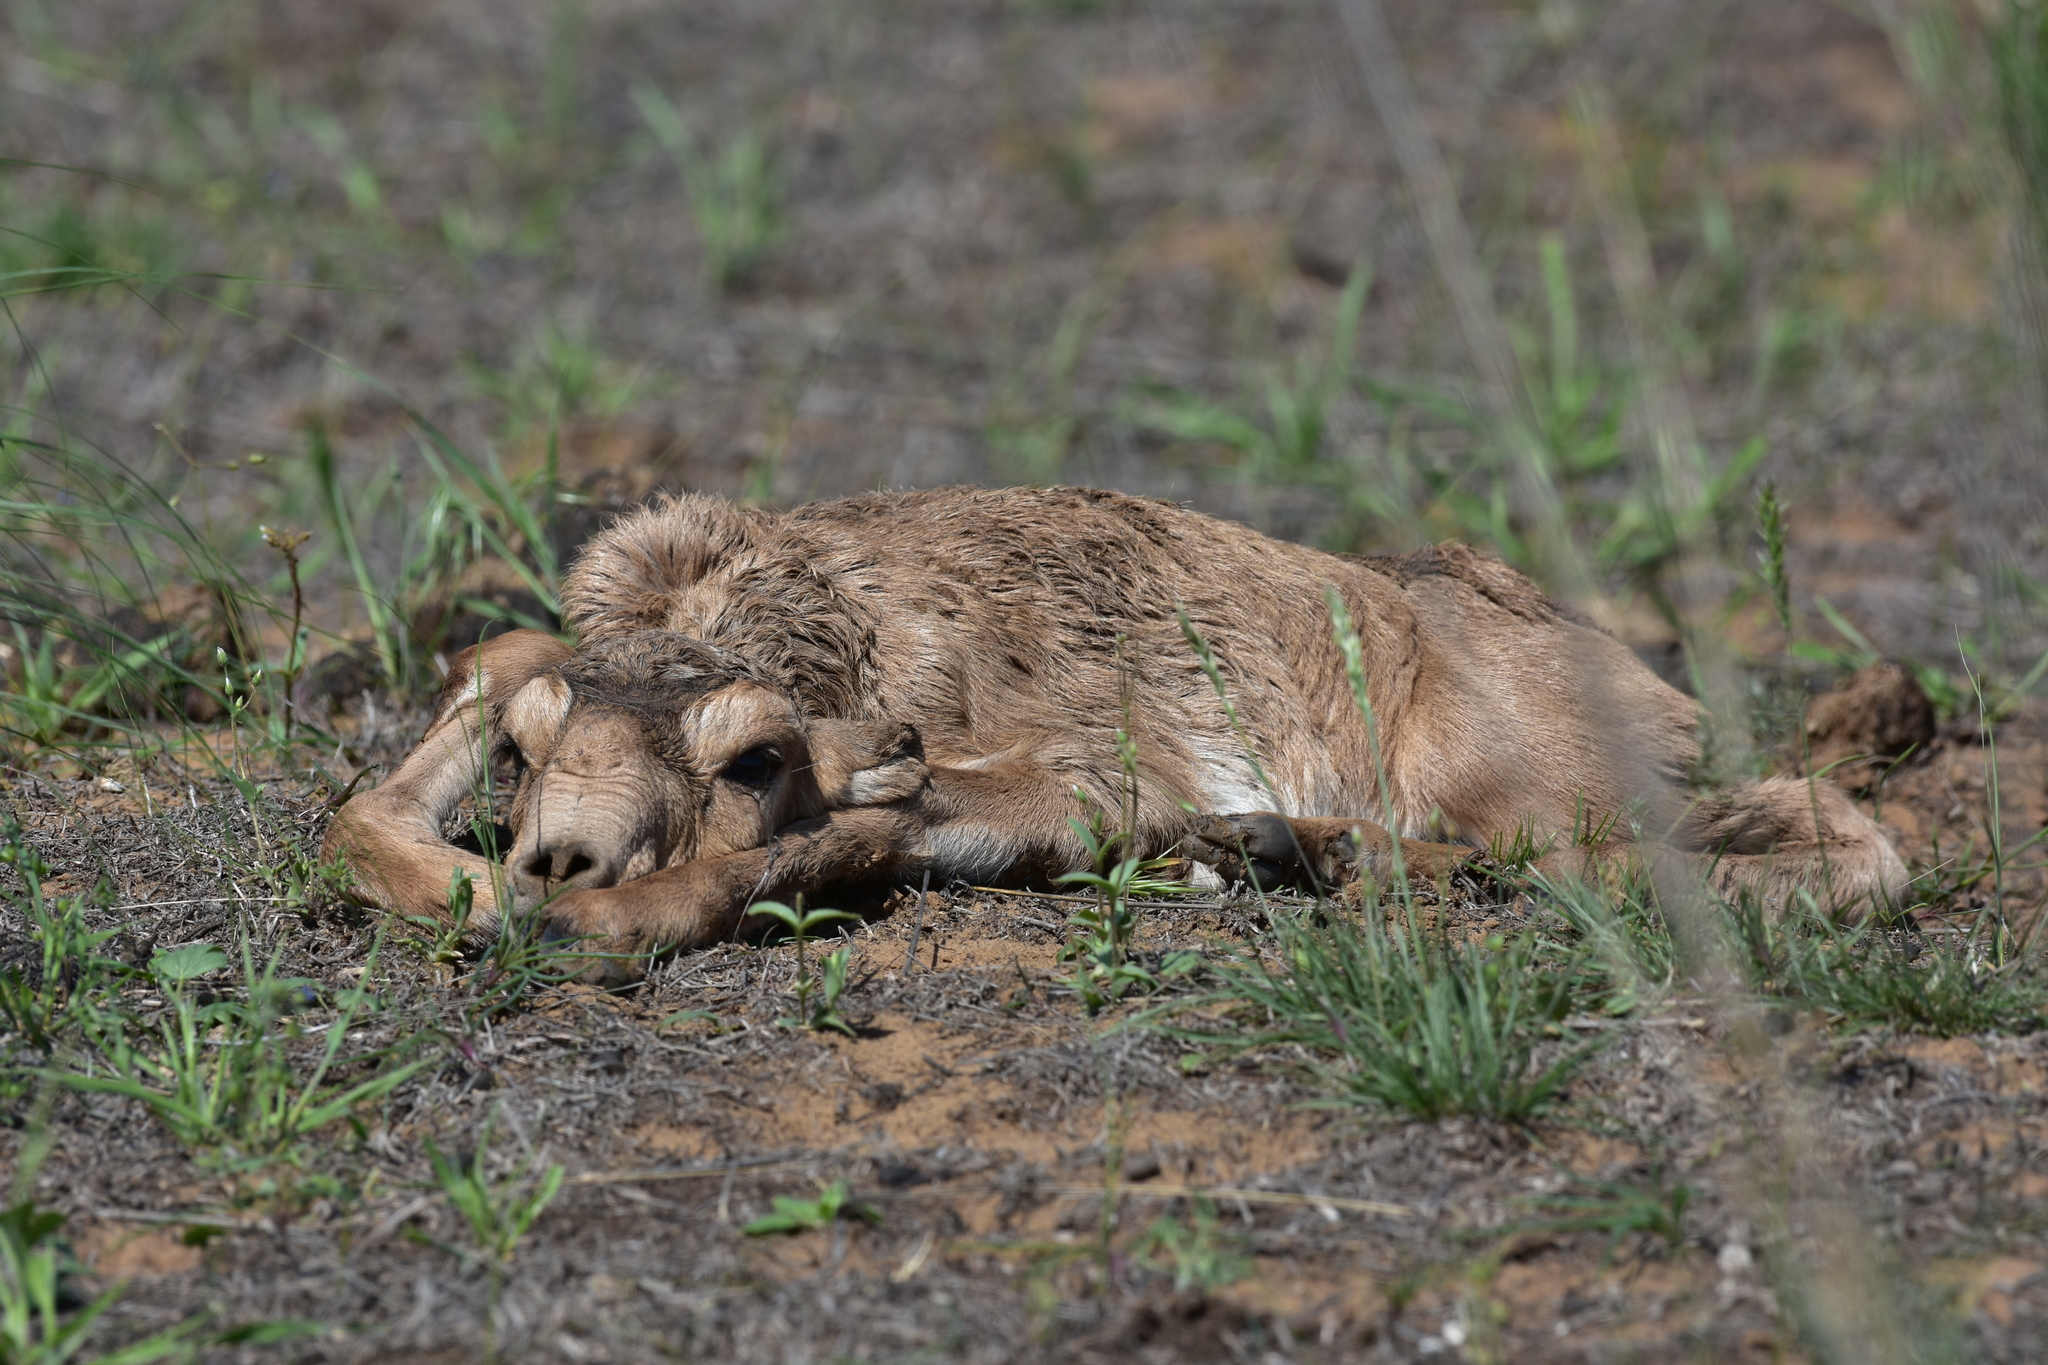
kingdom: Animalia
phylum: Chordata
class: Mammalia
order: Artiodactyla
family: Bovidae
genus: Saiga
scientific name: Saiga tatarica
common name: Saiga
